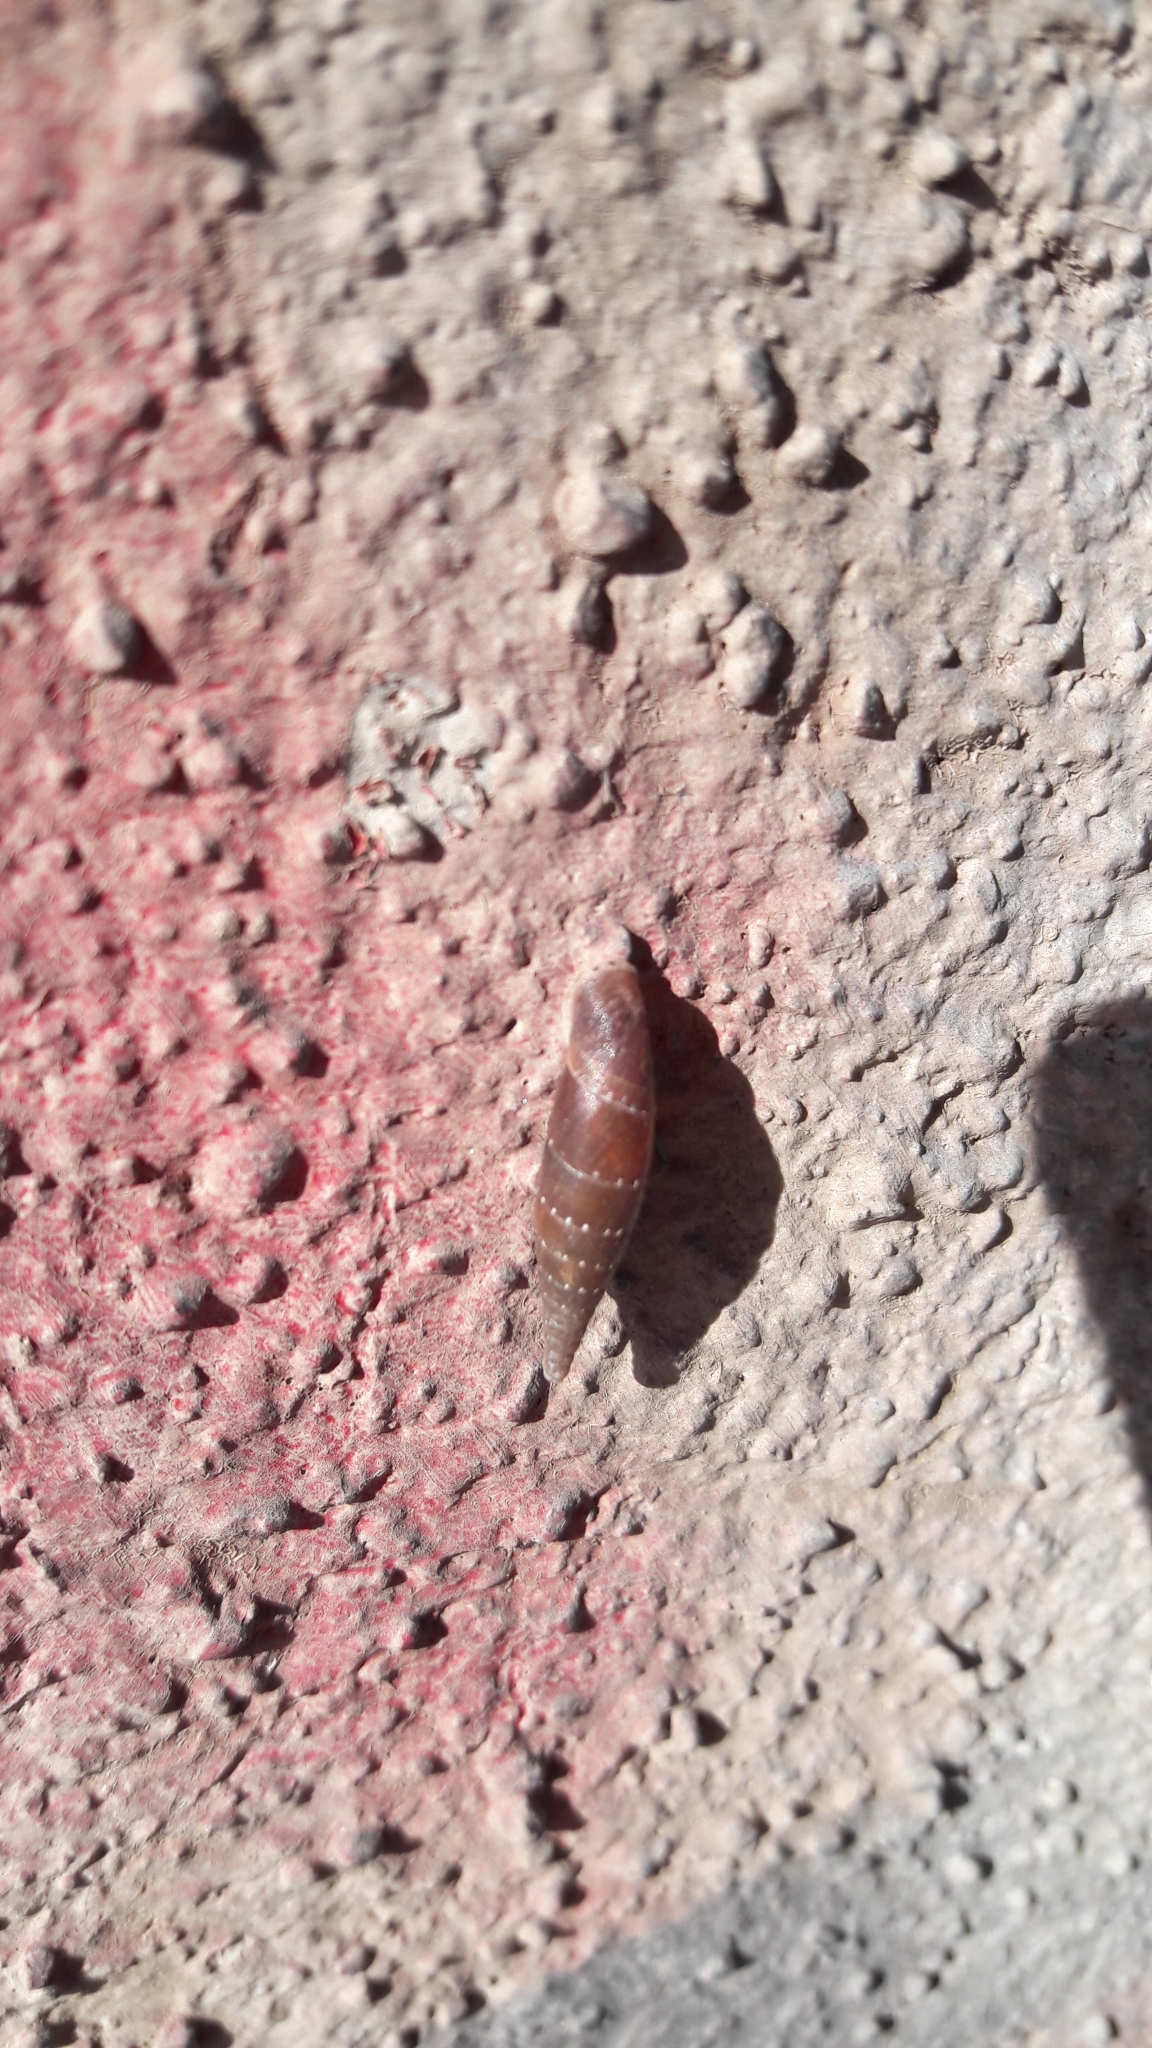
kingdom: Animalia
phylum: Mollusca
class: Gastropoda
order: Stylommatophora
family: Clausiliidae
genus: Papillifera
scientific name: Papillifera papillaris
